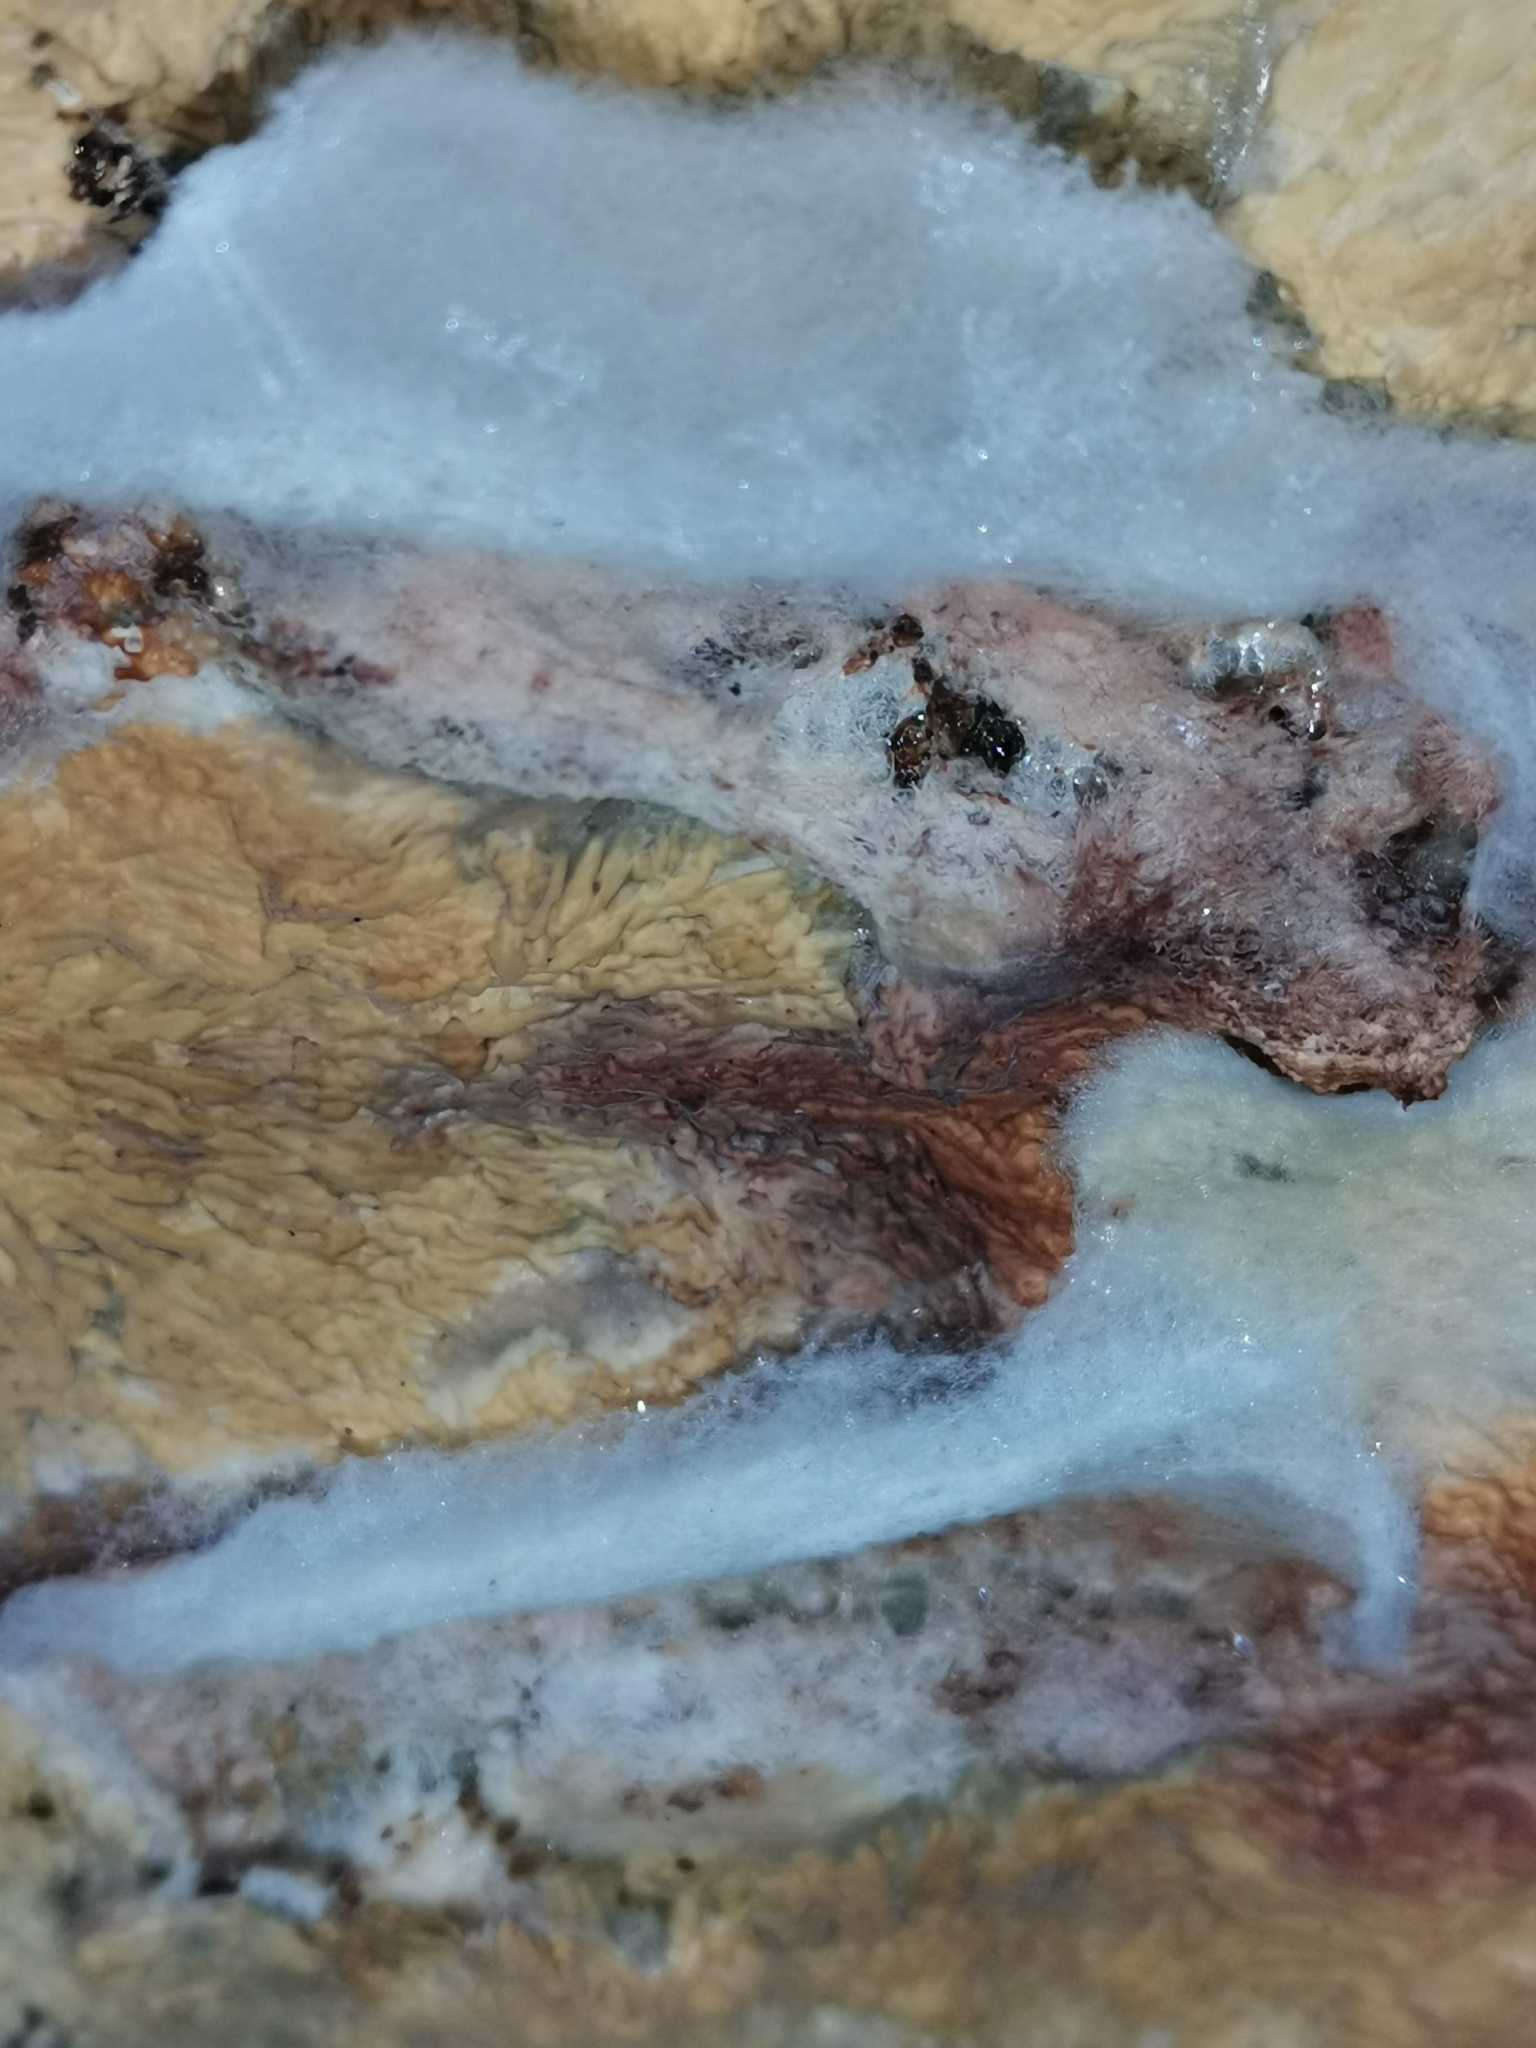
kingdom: Fungi
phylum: Basidiomycota
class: Agaricomycetes
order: Polyporales
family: Meruliaceae
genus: Hermanssonia
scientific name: Hermanssonia centrifuga
